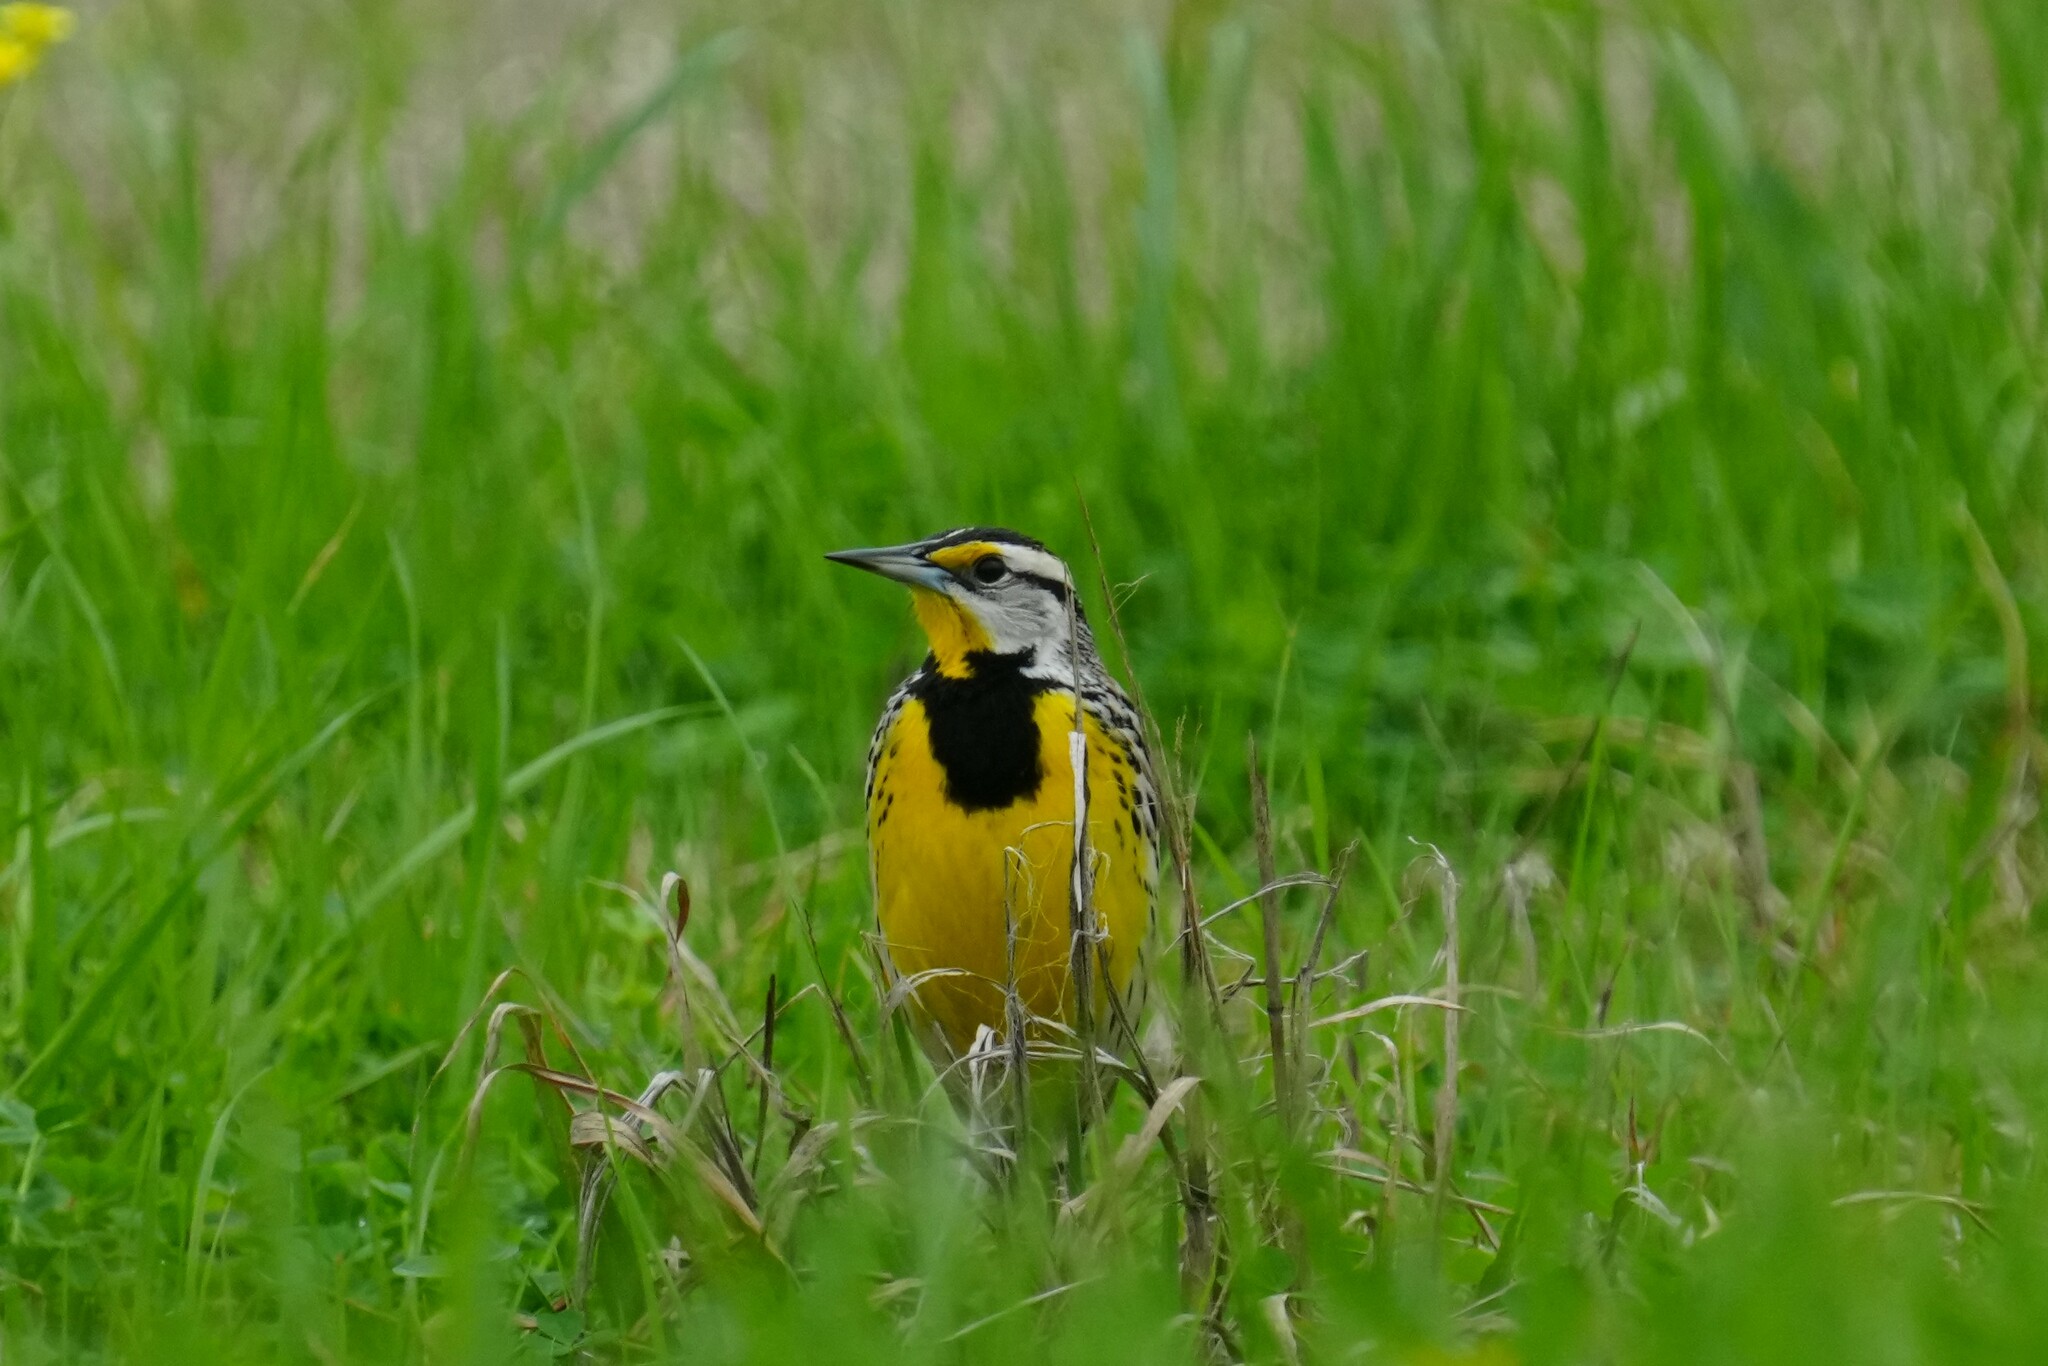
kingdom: Animalia
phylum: Chordata
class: Aves
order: Passeriformes
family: Icteridae
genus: Sturnella
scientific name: Sturnella magna
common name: Eastern meadowlark
